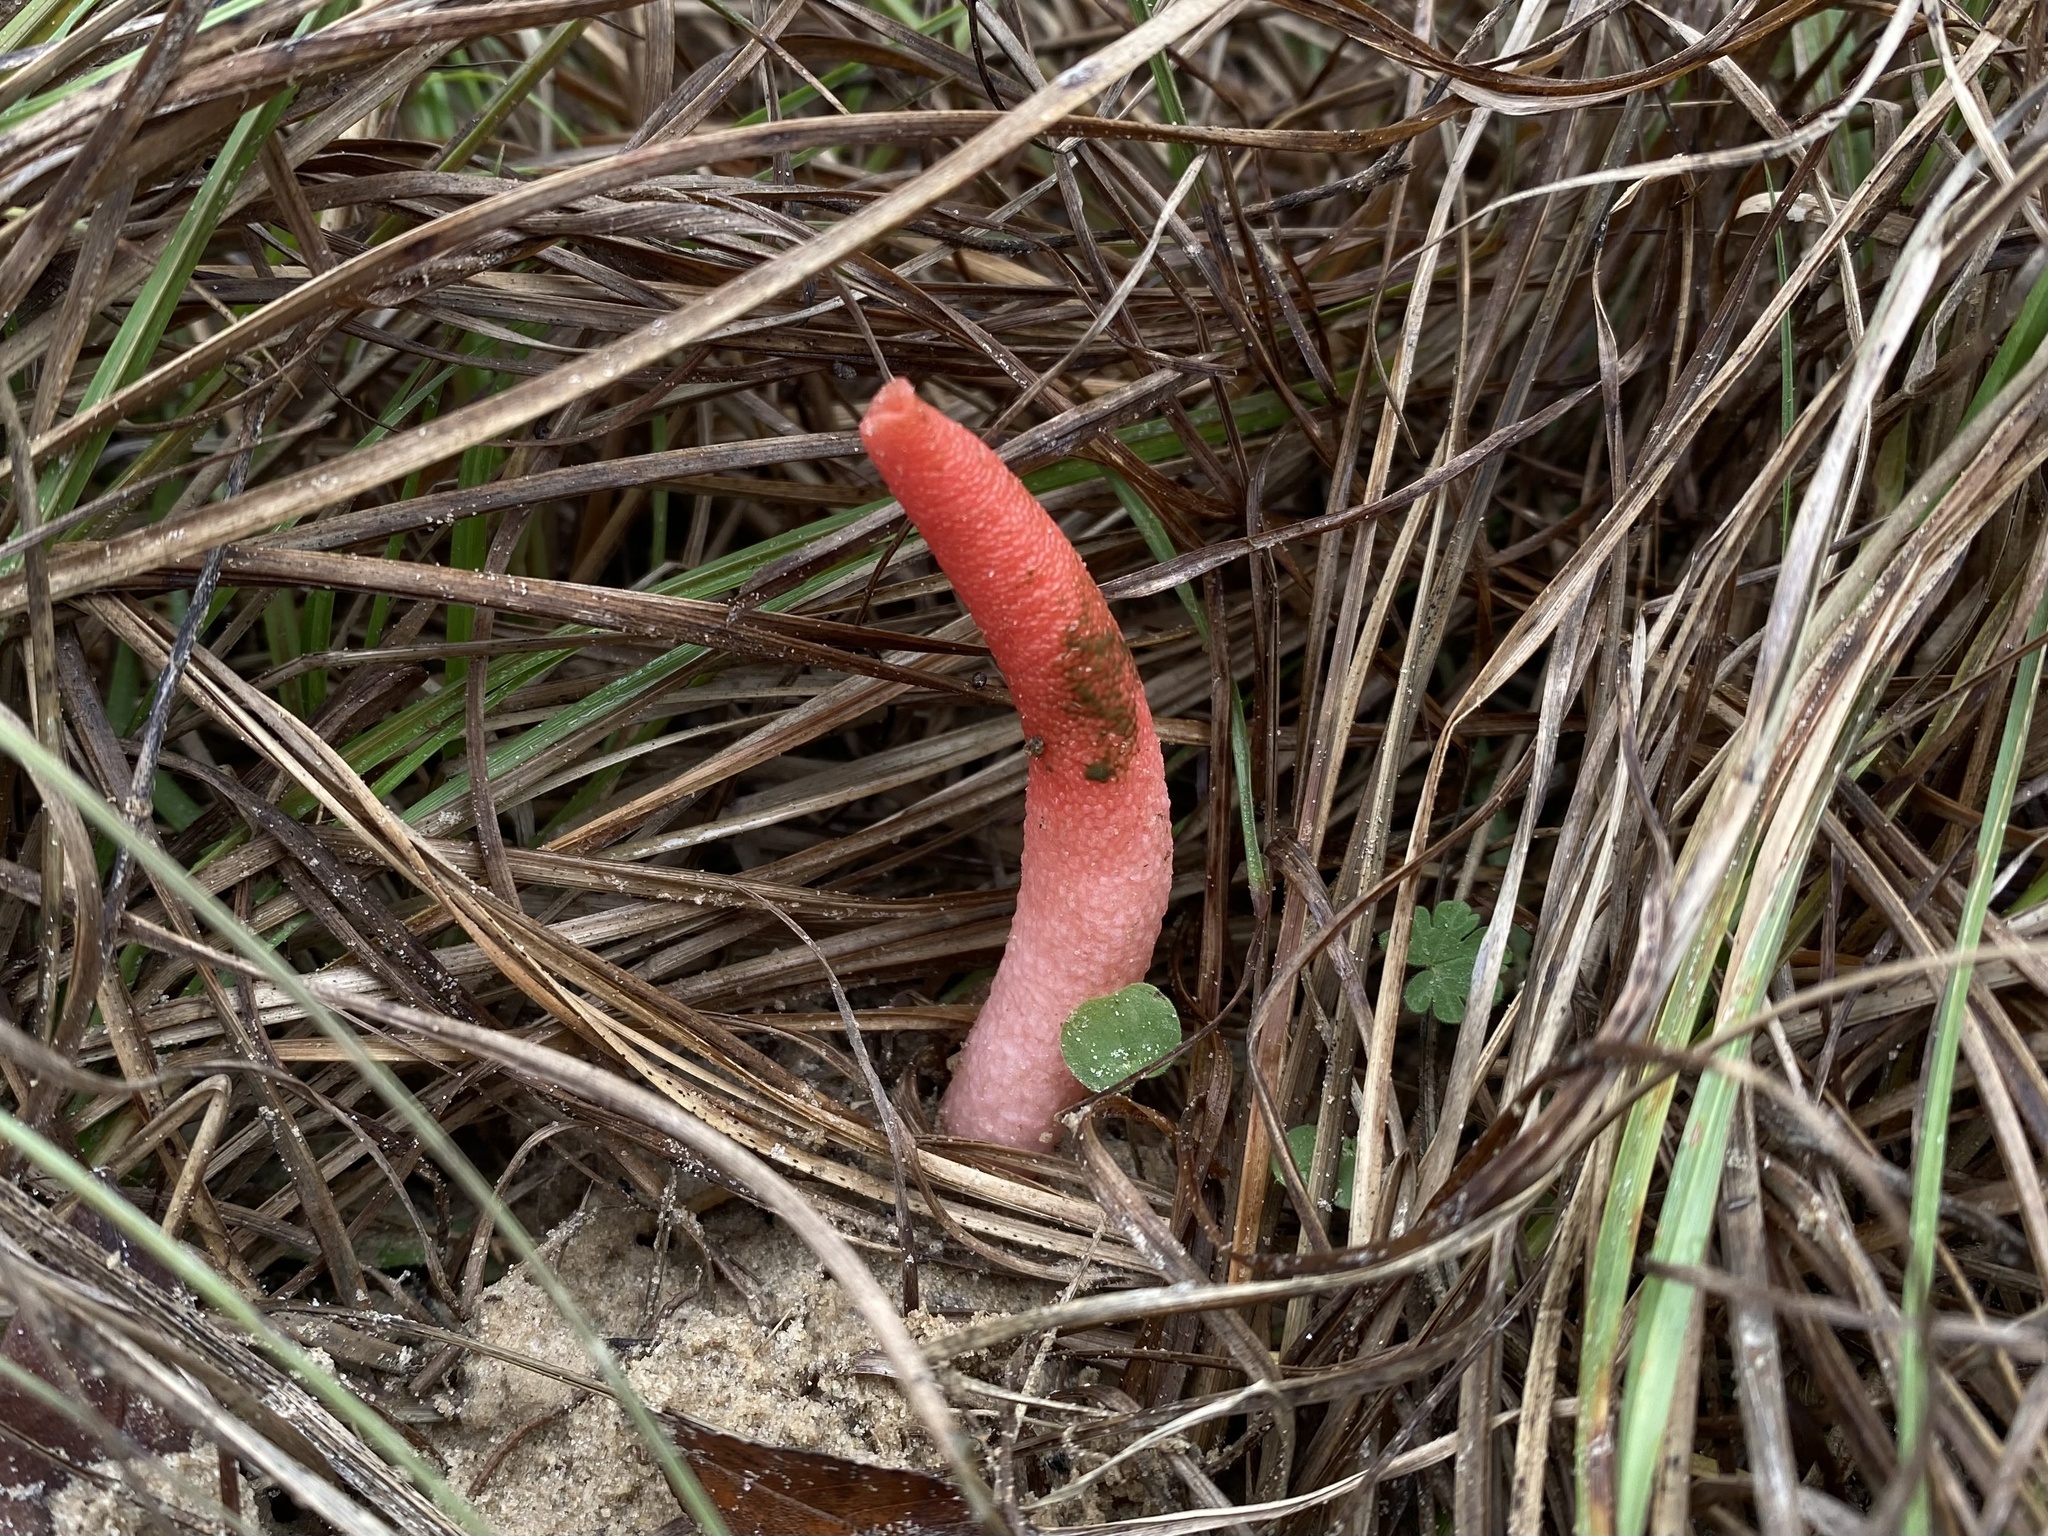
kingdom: Fungi
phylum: Basidiomycota
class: Agaricomycetes
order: Phallales
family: Phallaceae
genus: Mutinus
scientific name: Mutinus elegans
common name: Devil's dipstick
